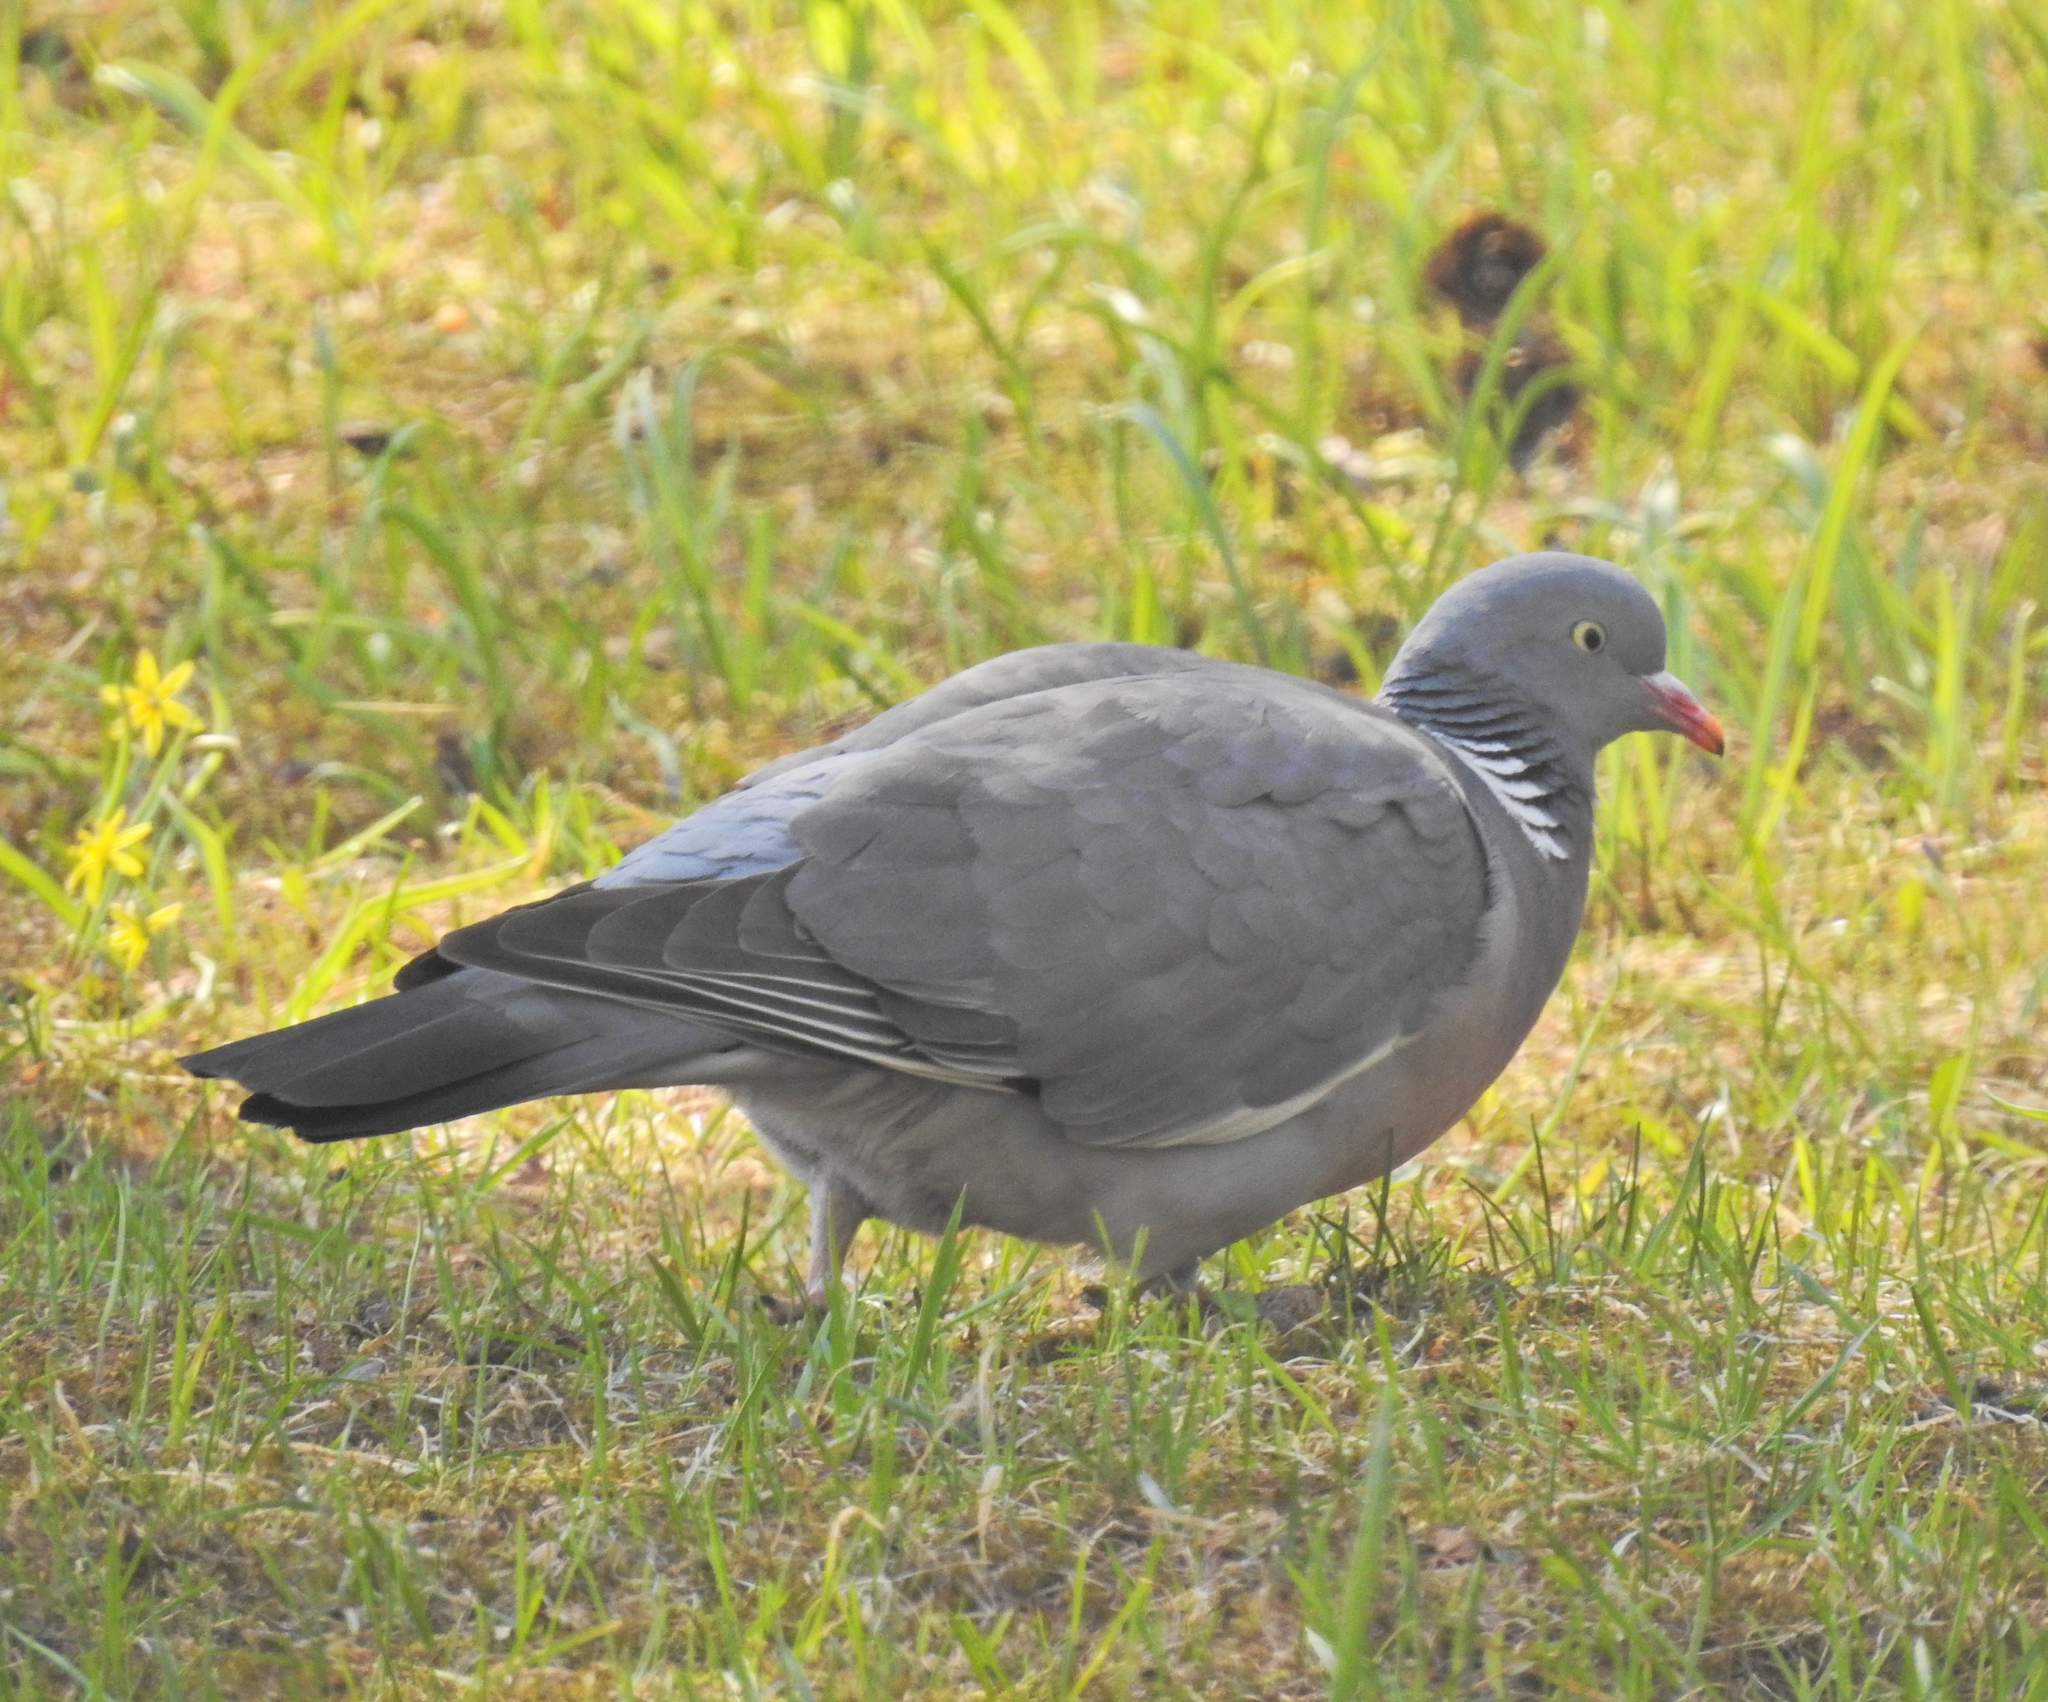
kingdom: Animalia
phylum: Chordata
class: Aves
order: Columbiformes
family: Columbidae
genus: Columba
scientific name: Columba palumbus
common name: Common wood pigeon
